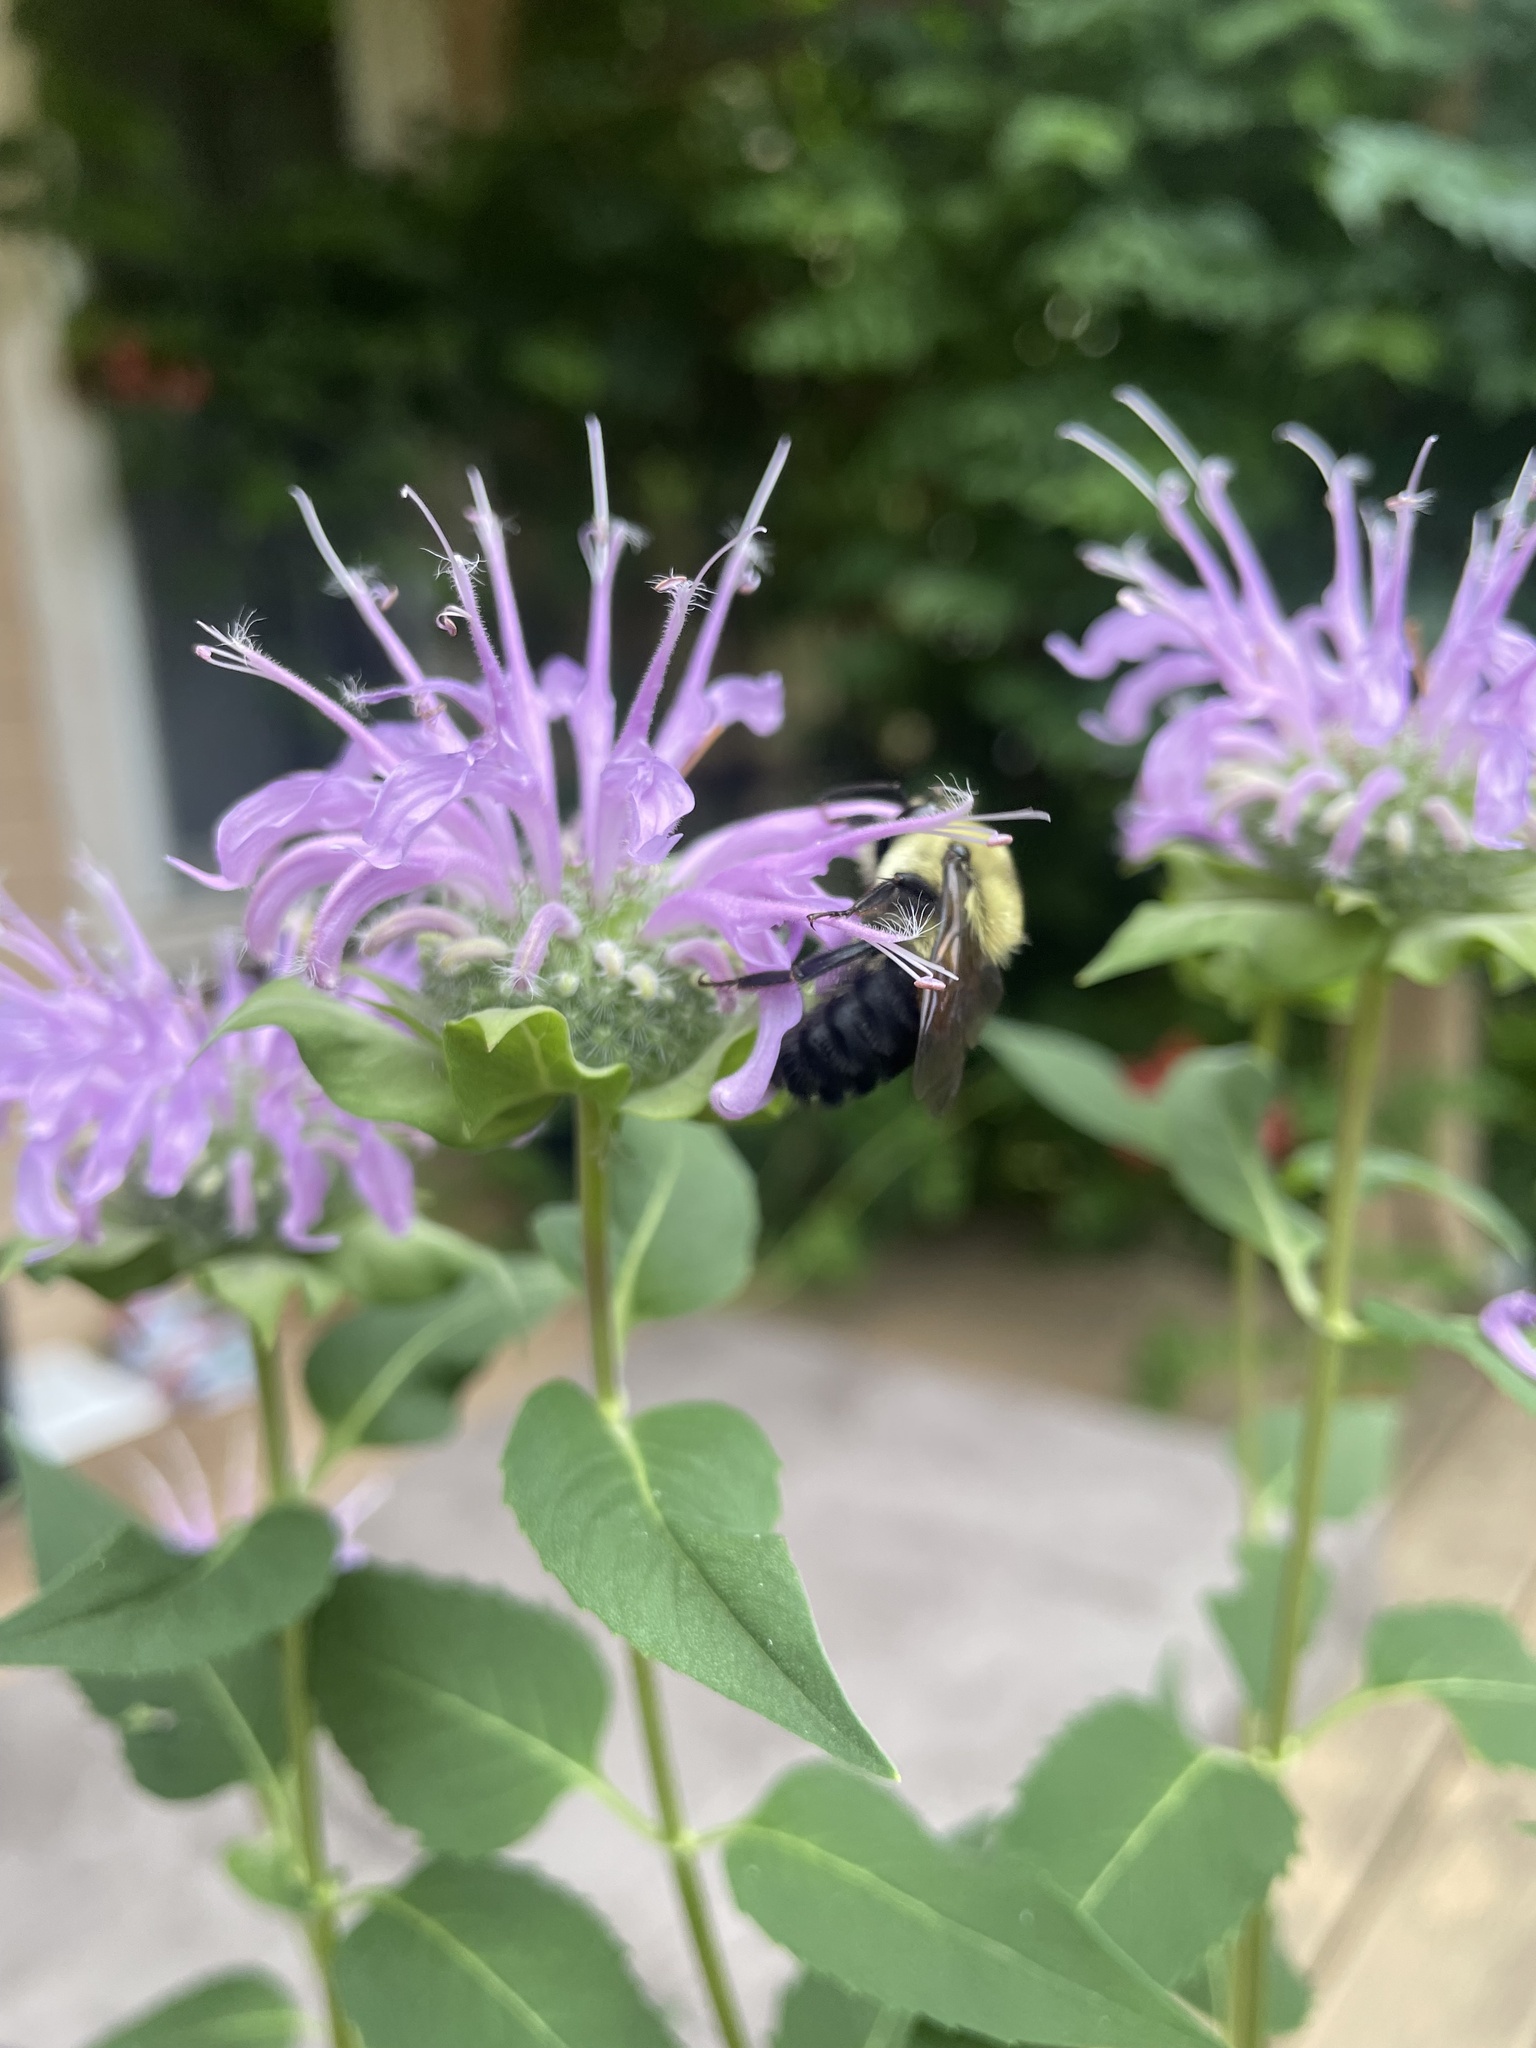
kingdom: Animalia
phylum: Arthropoda
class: Insecta
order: Hymenoptera
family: Apidae
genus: Bombus
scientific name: Bombus griseocollis
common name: Brown-belted bumble bee
